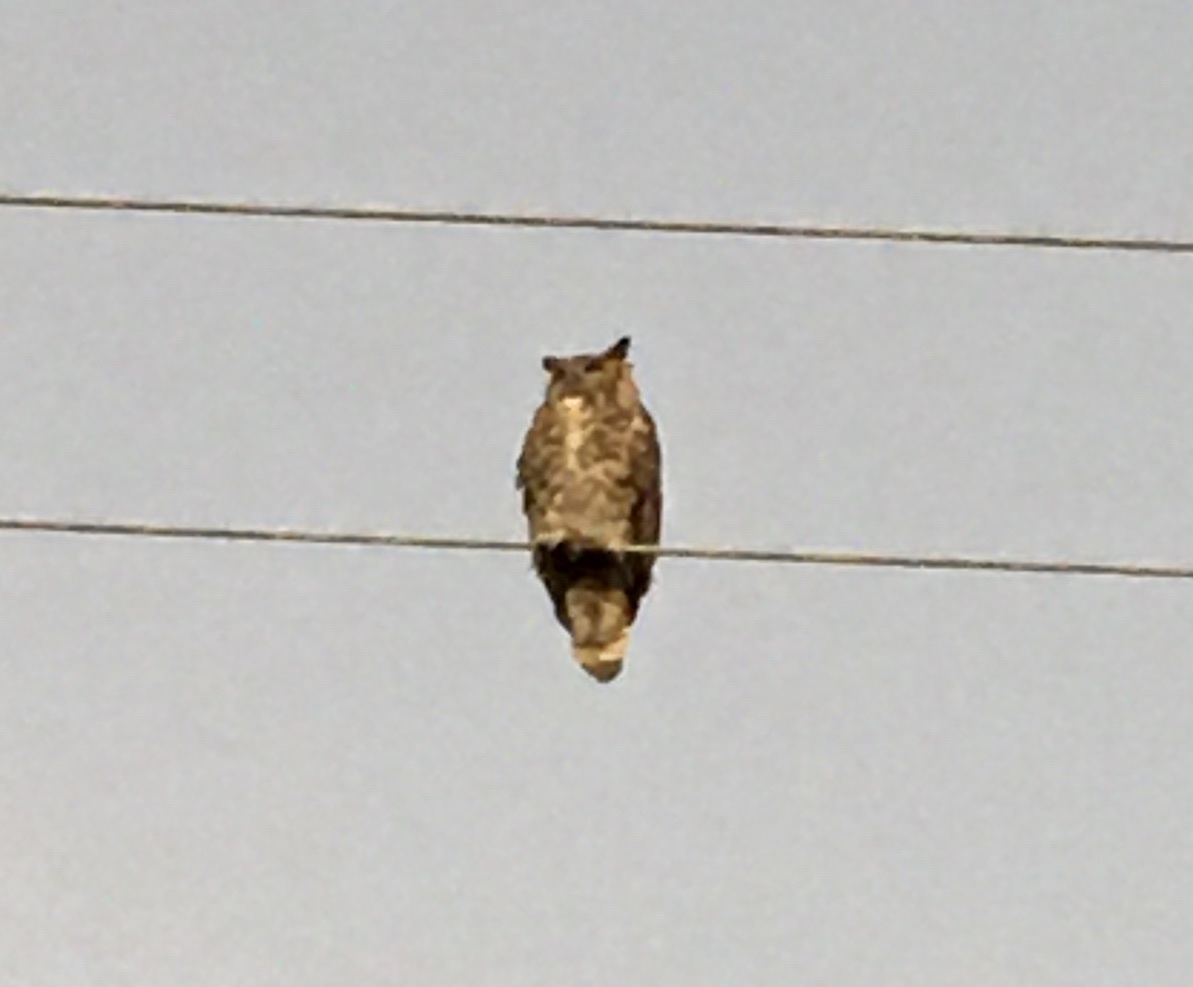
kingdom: Animalia
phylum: Chordata
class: Aves
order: Strigiformes
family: Strigidae
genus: Bubo
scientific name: Bubo virginianus
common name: Great horned owl
